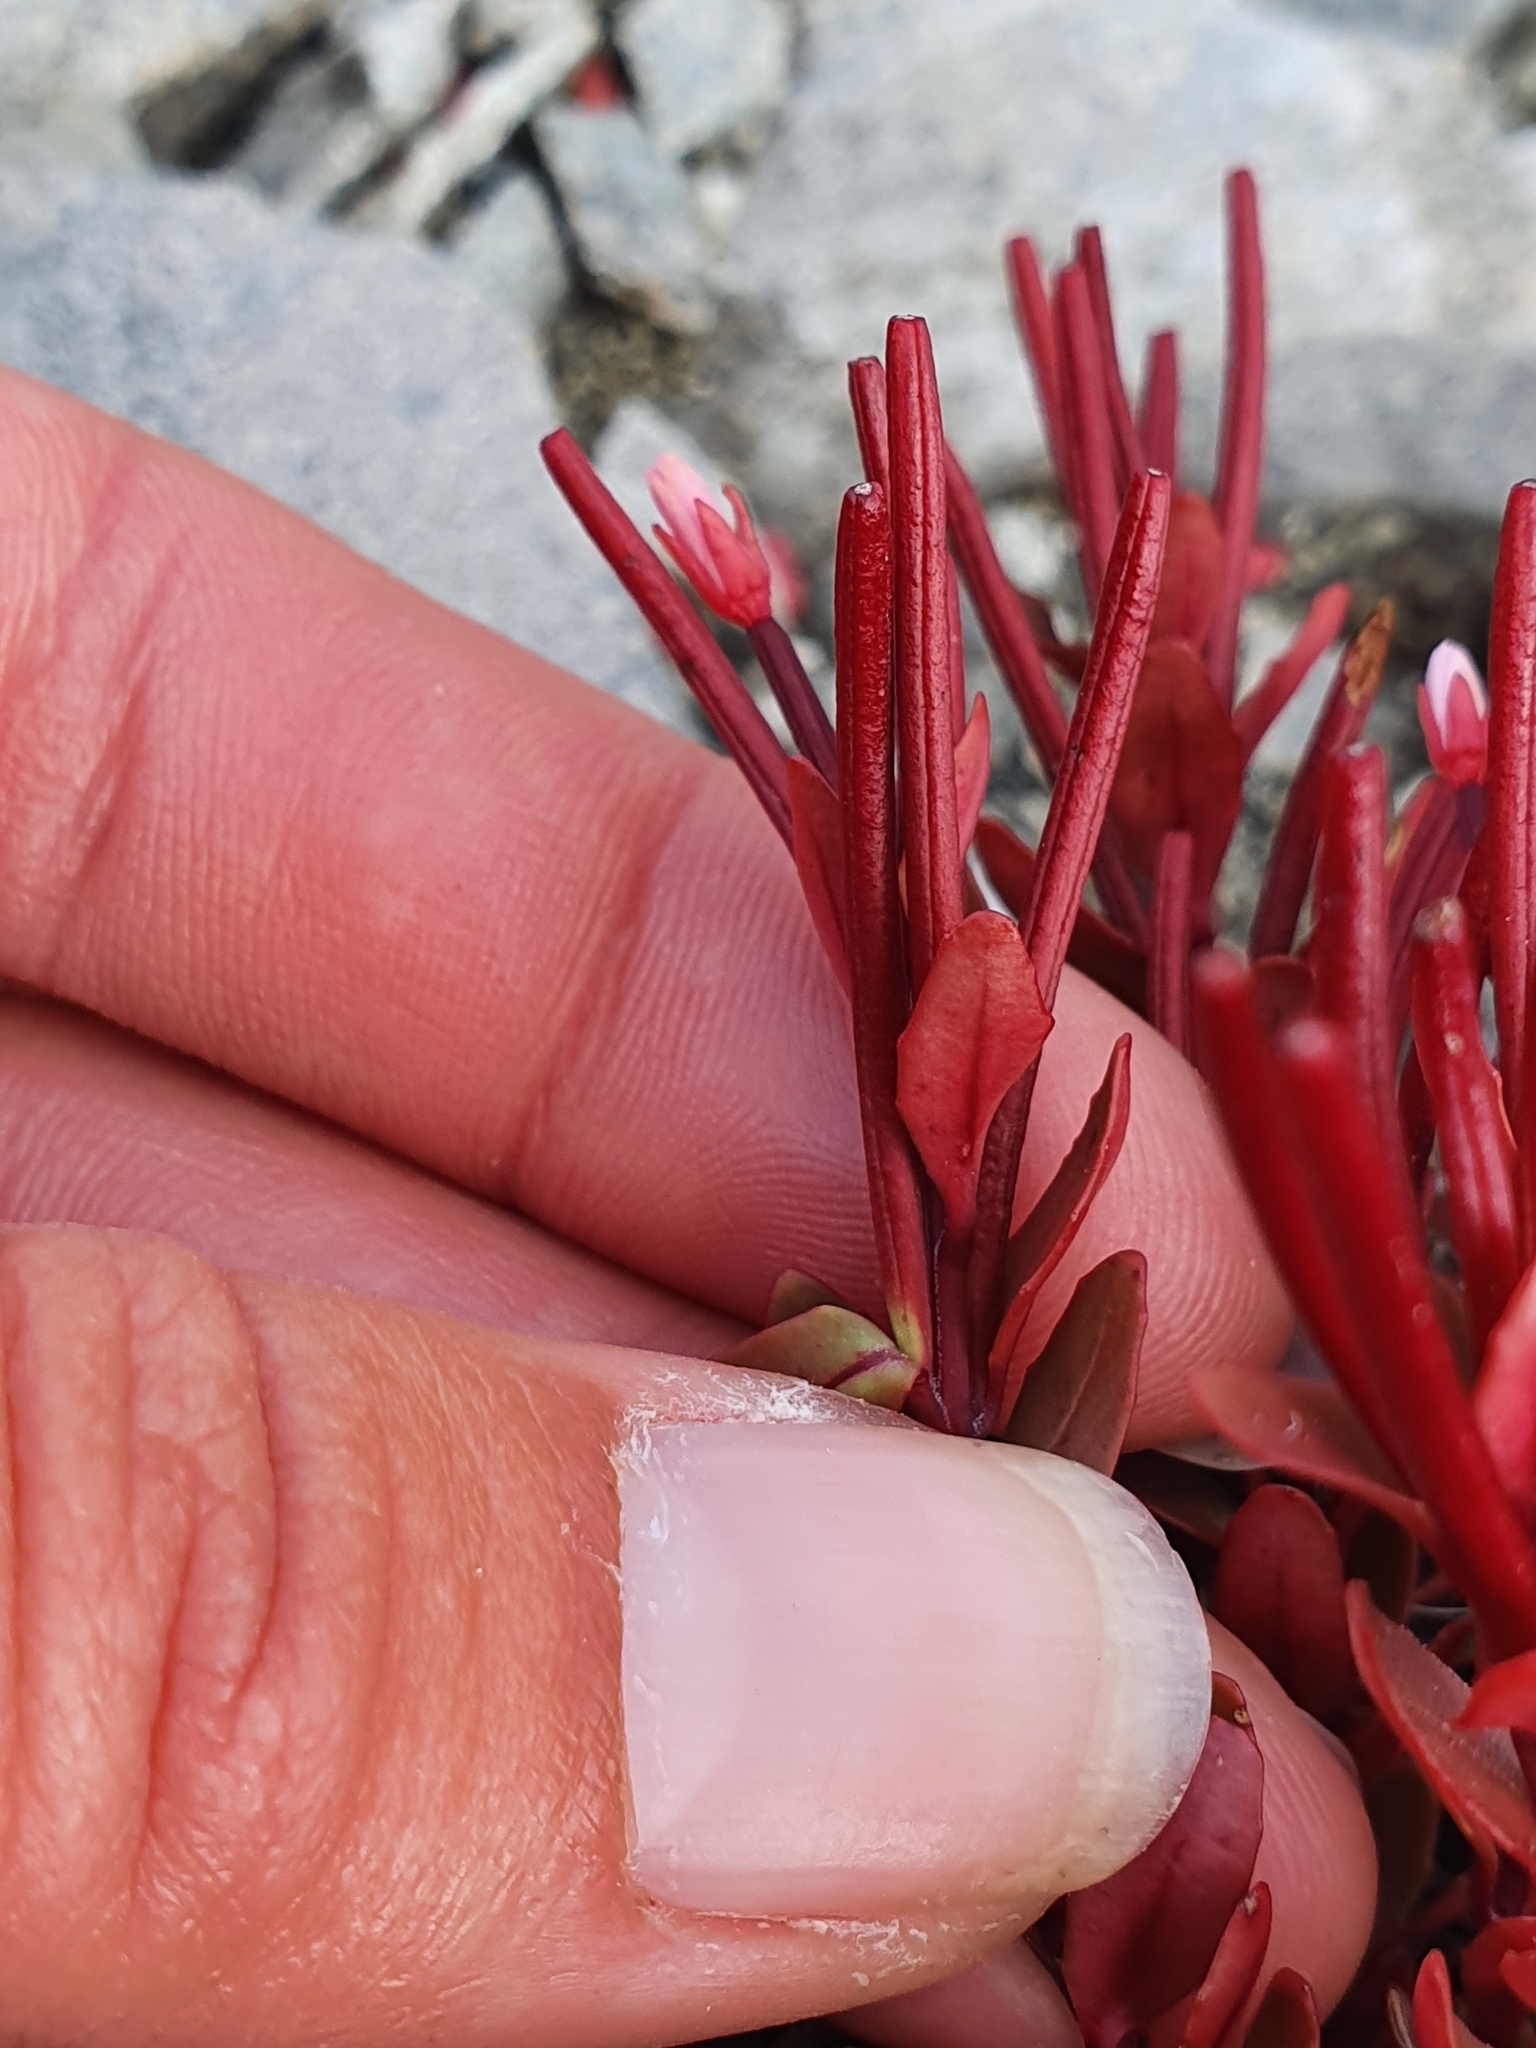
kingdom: Plantae
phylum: Tracheophyta
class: Magnoliopsida
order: Myrtales
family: Onagraceae
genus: Epilobium
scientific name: Epilobium porphyrium
